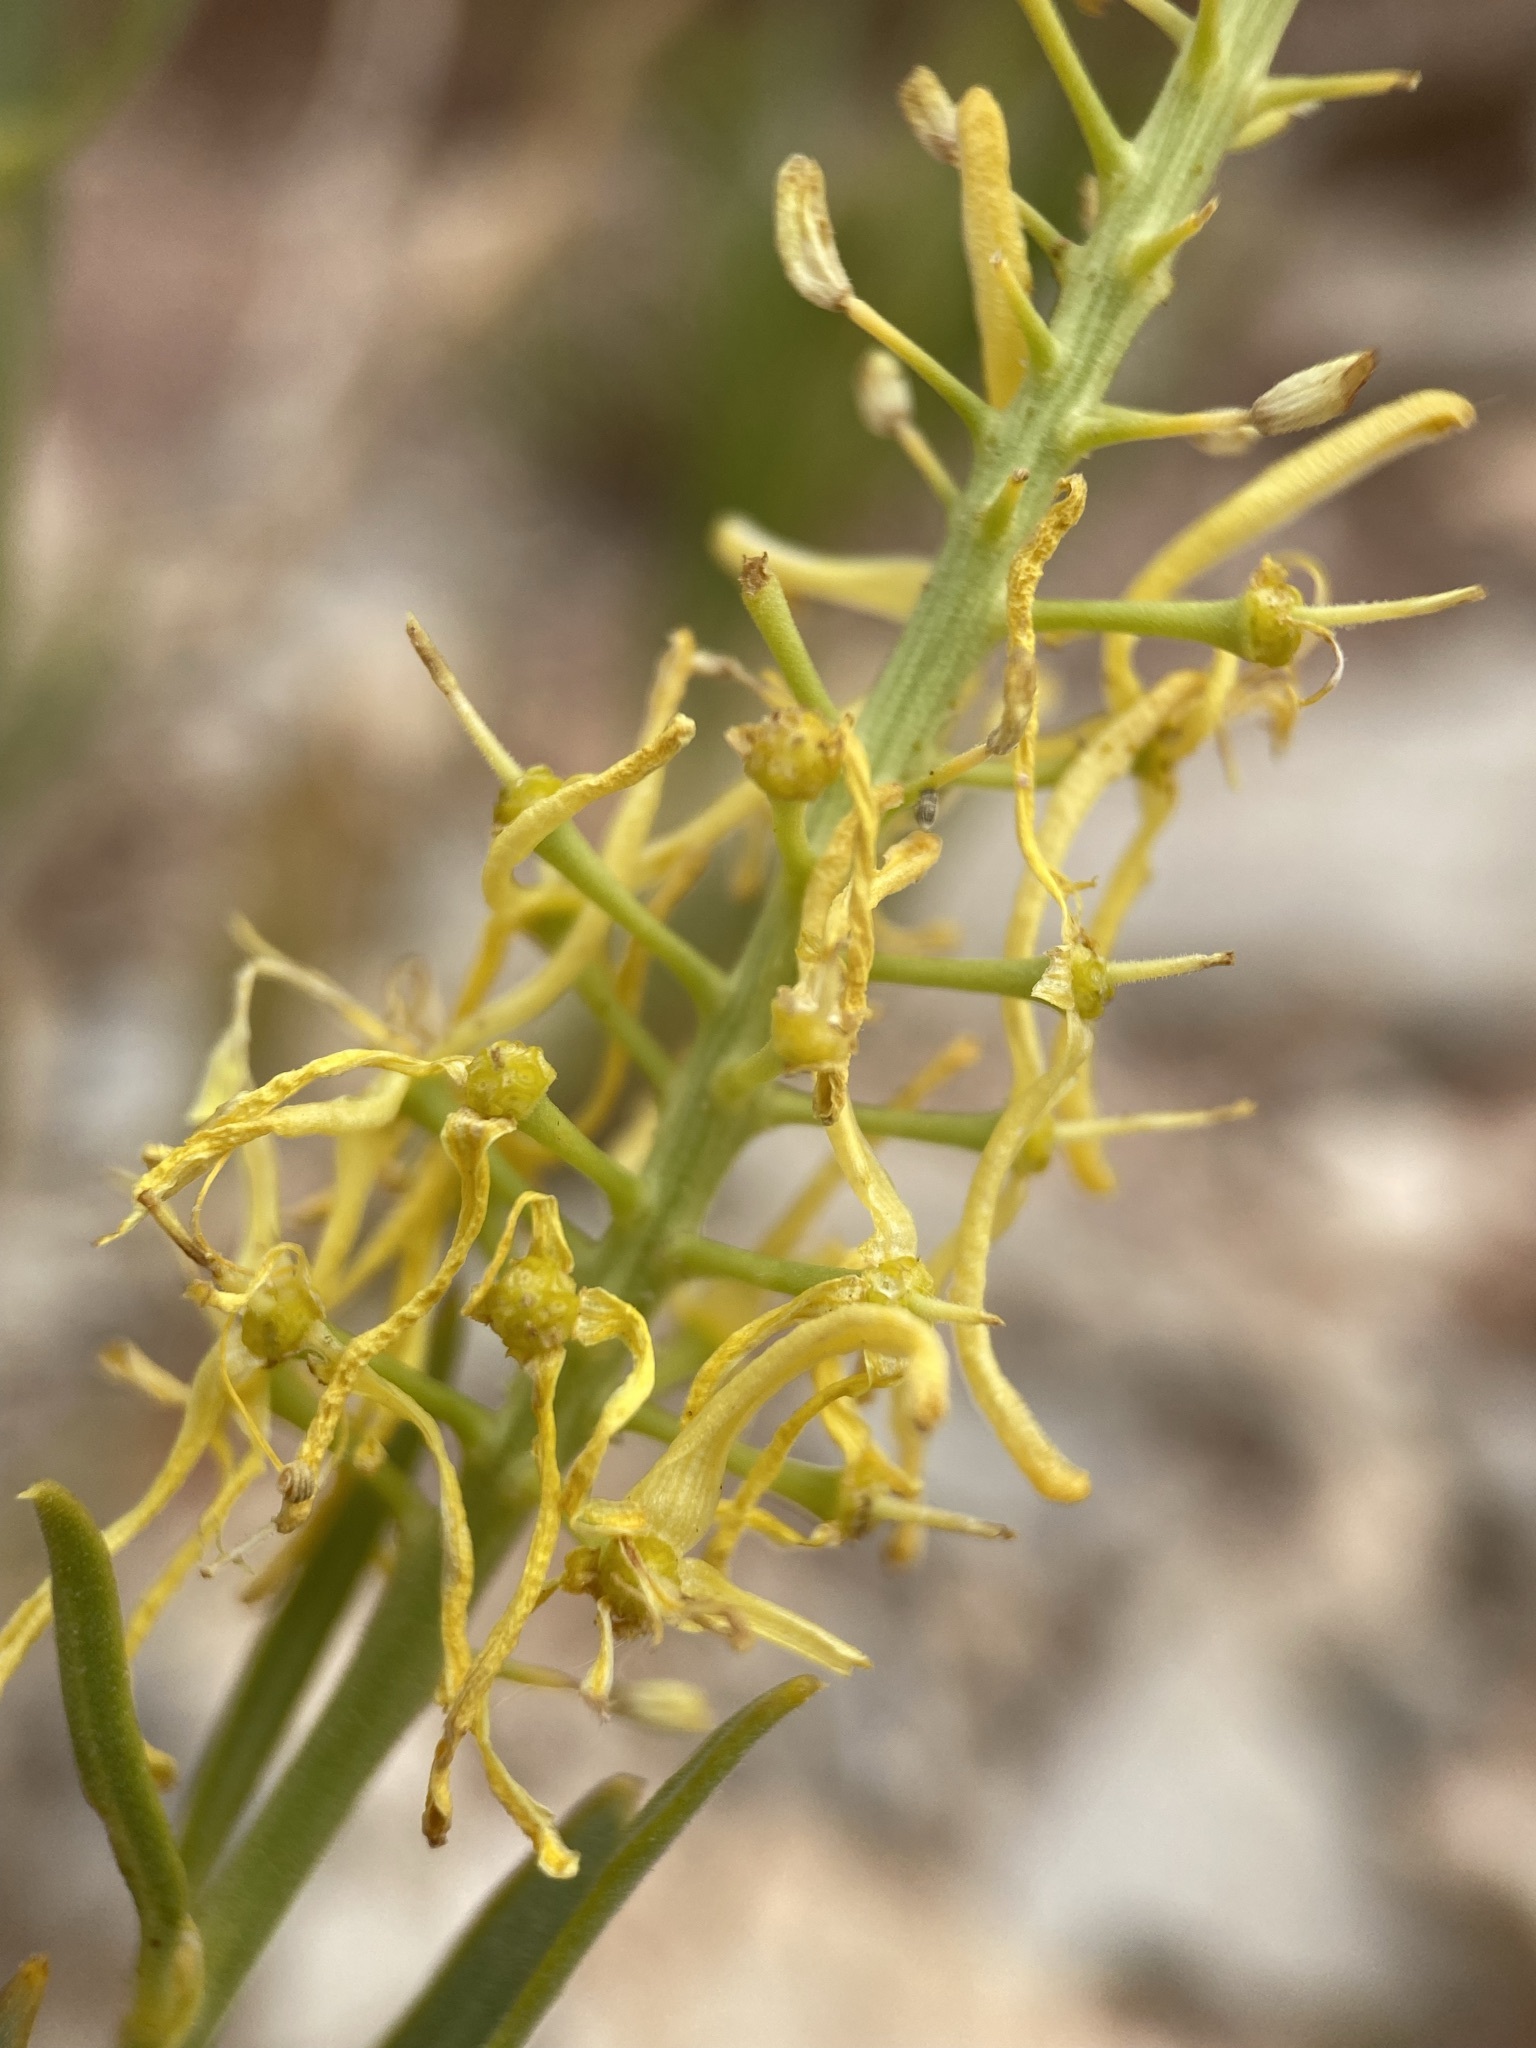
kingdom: Plantae
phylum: Tracheophyta
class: Magnoliopsida
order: Brassicales
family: Brassicaceae
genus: Stanleya
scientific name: Stanleya pinnata
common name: Prince's-plume
